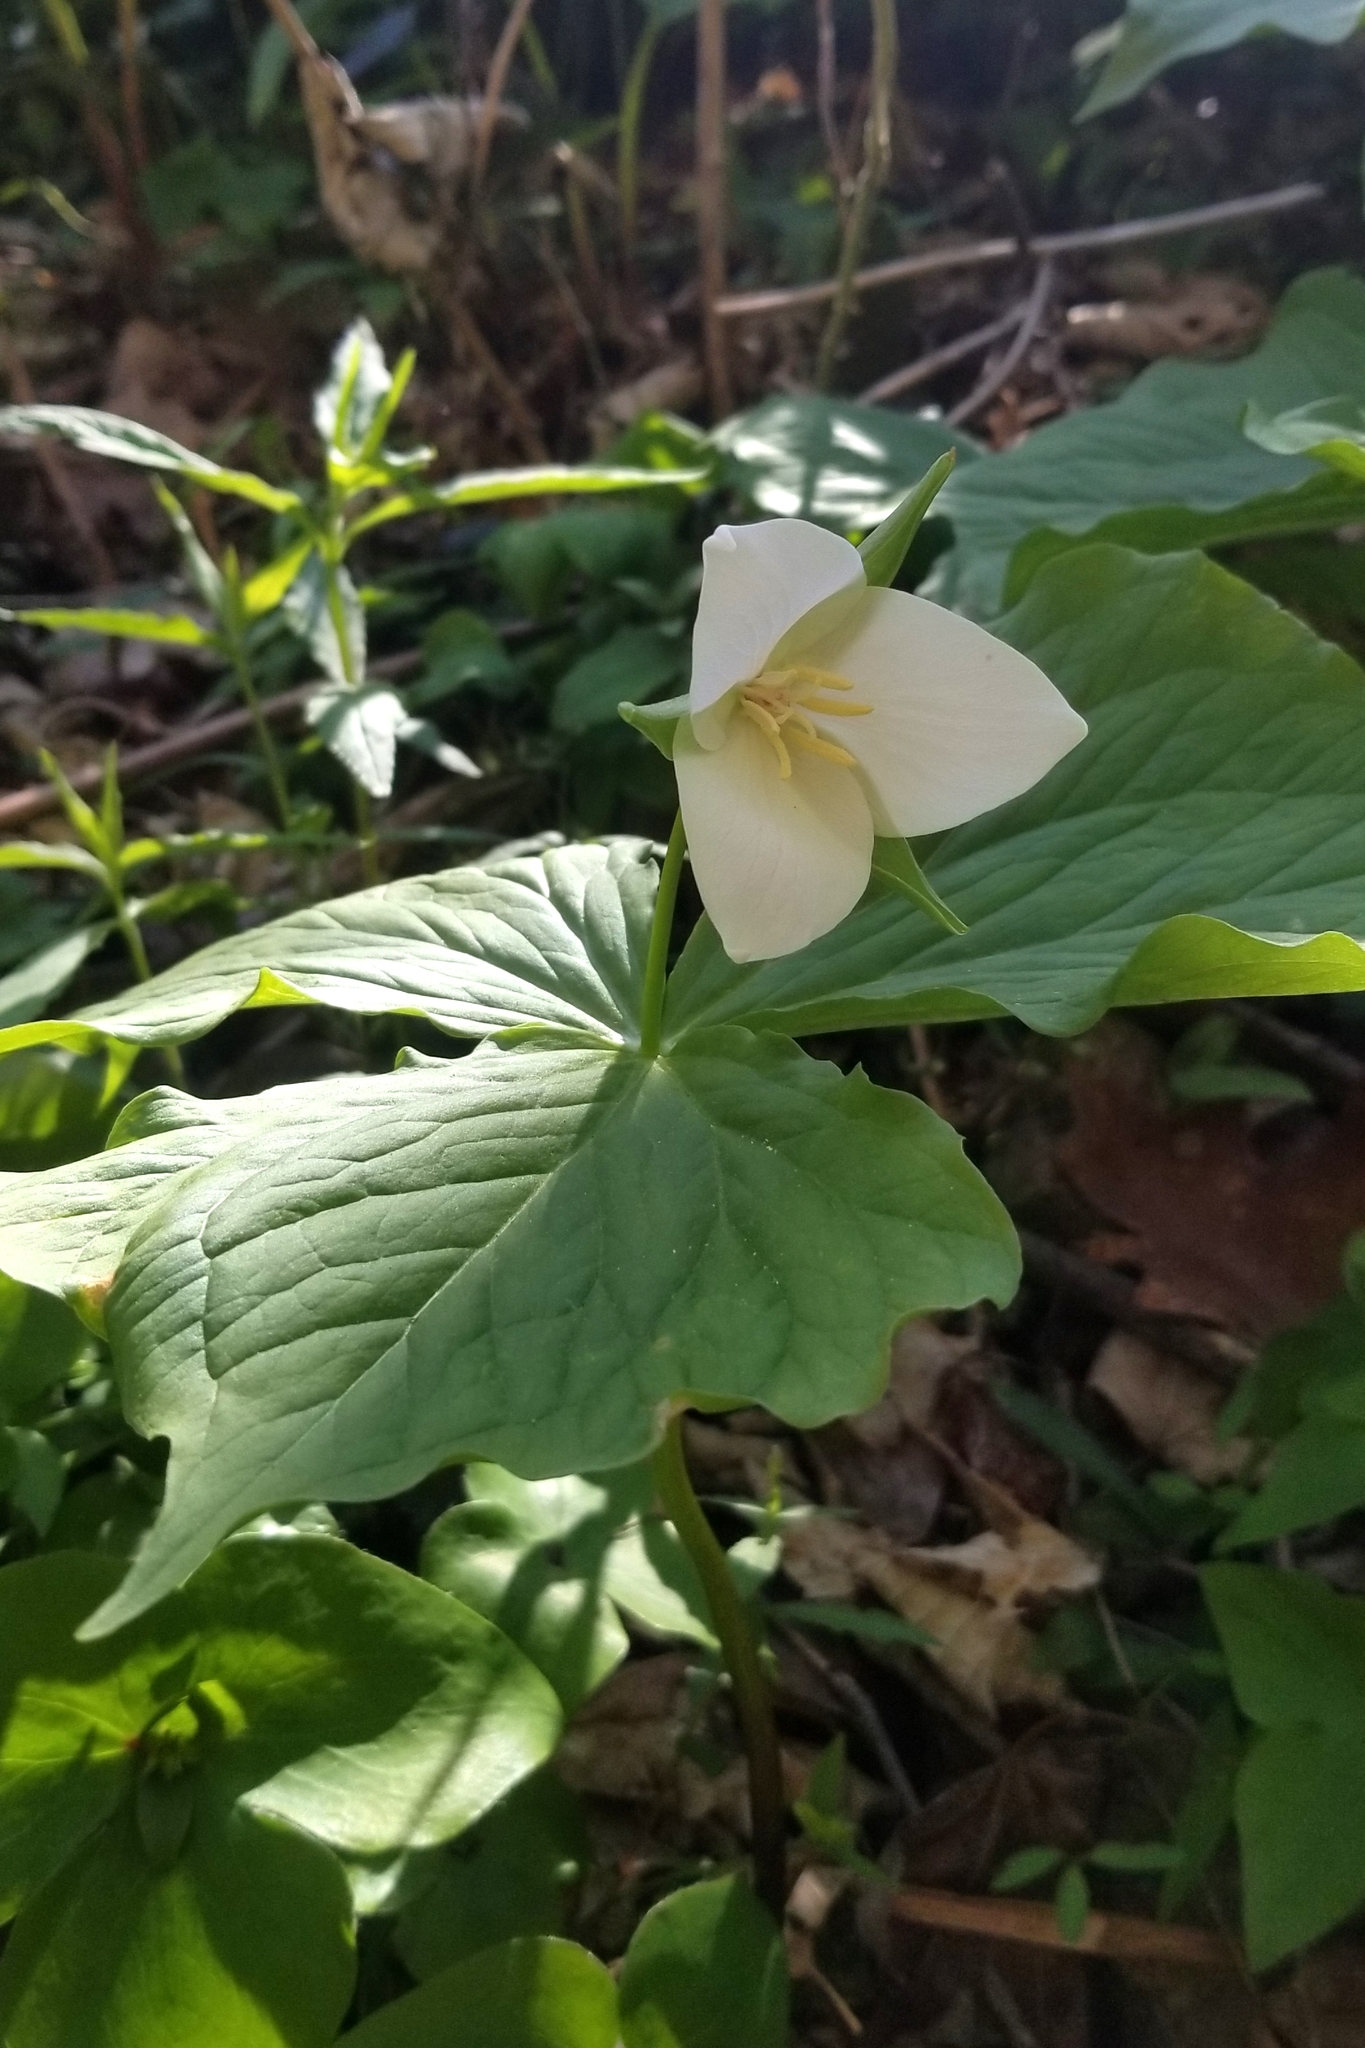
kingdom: Plantae
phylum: Tracheophyta
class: Liliopsida
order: Liliales
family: Melanthiaceae
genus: Trillium
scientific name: Trillium flexipes
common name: Drooping trillium
